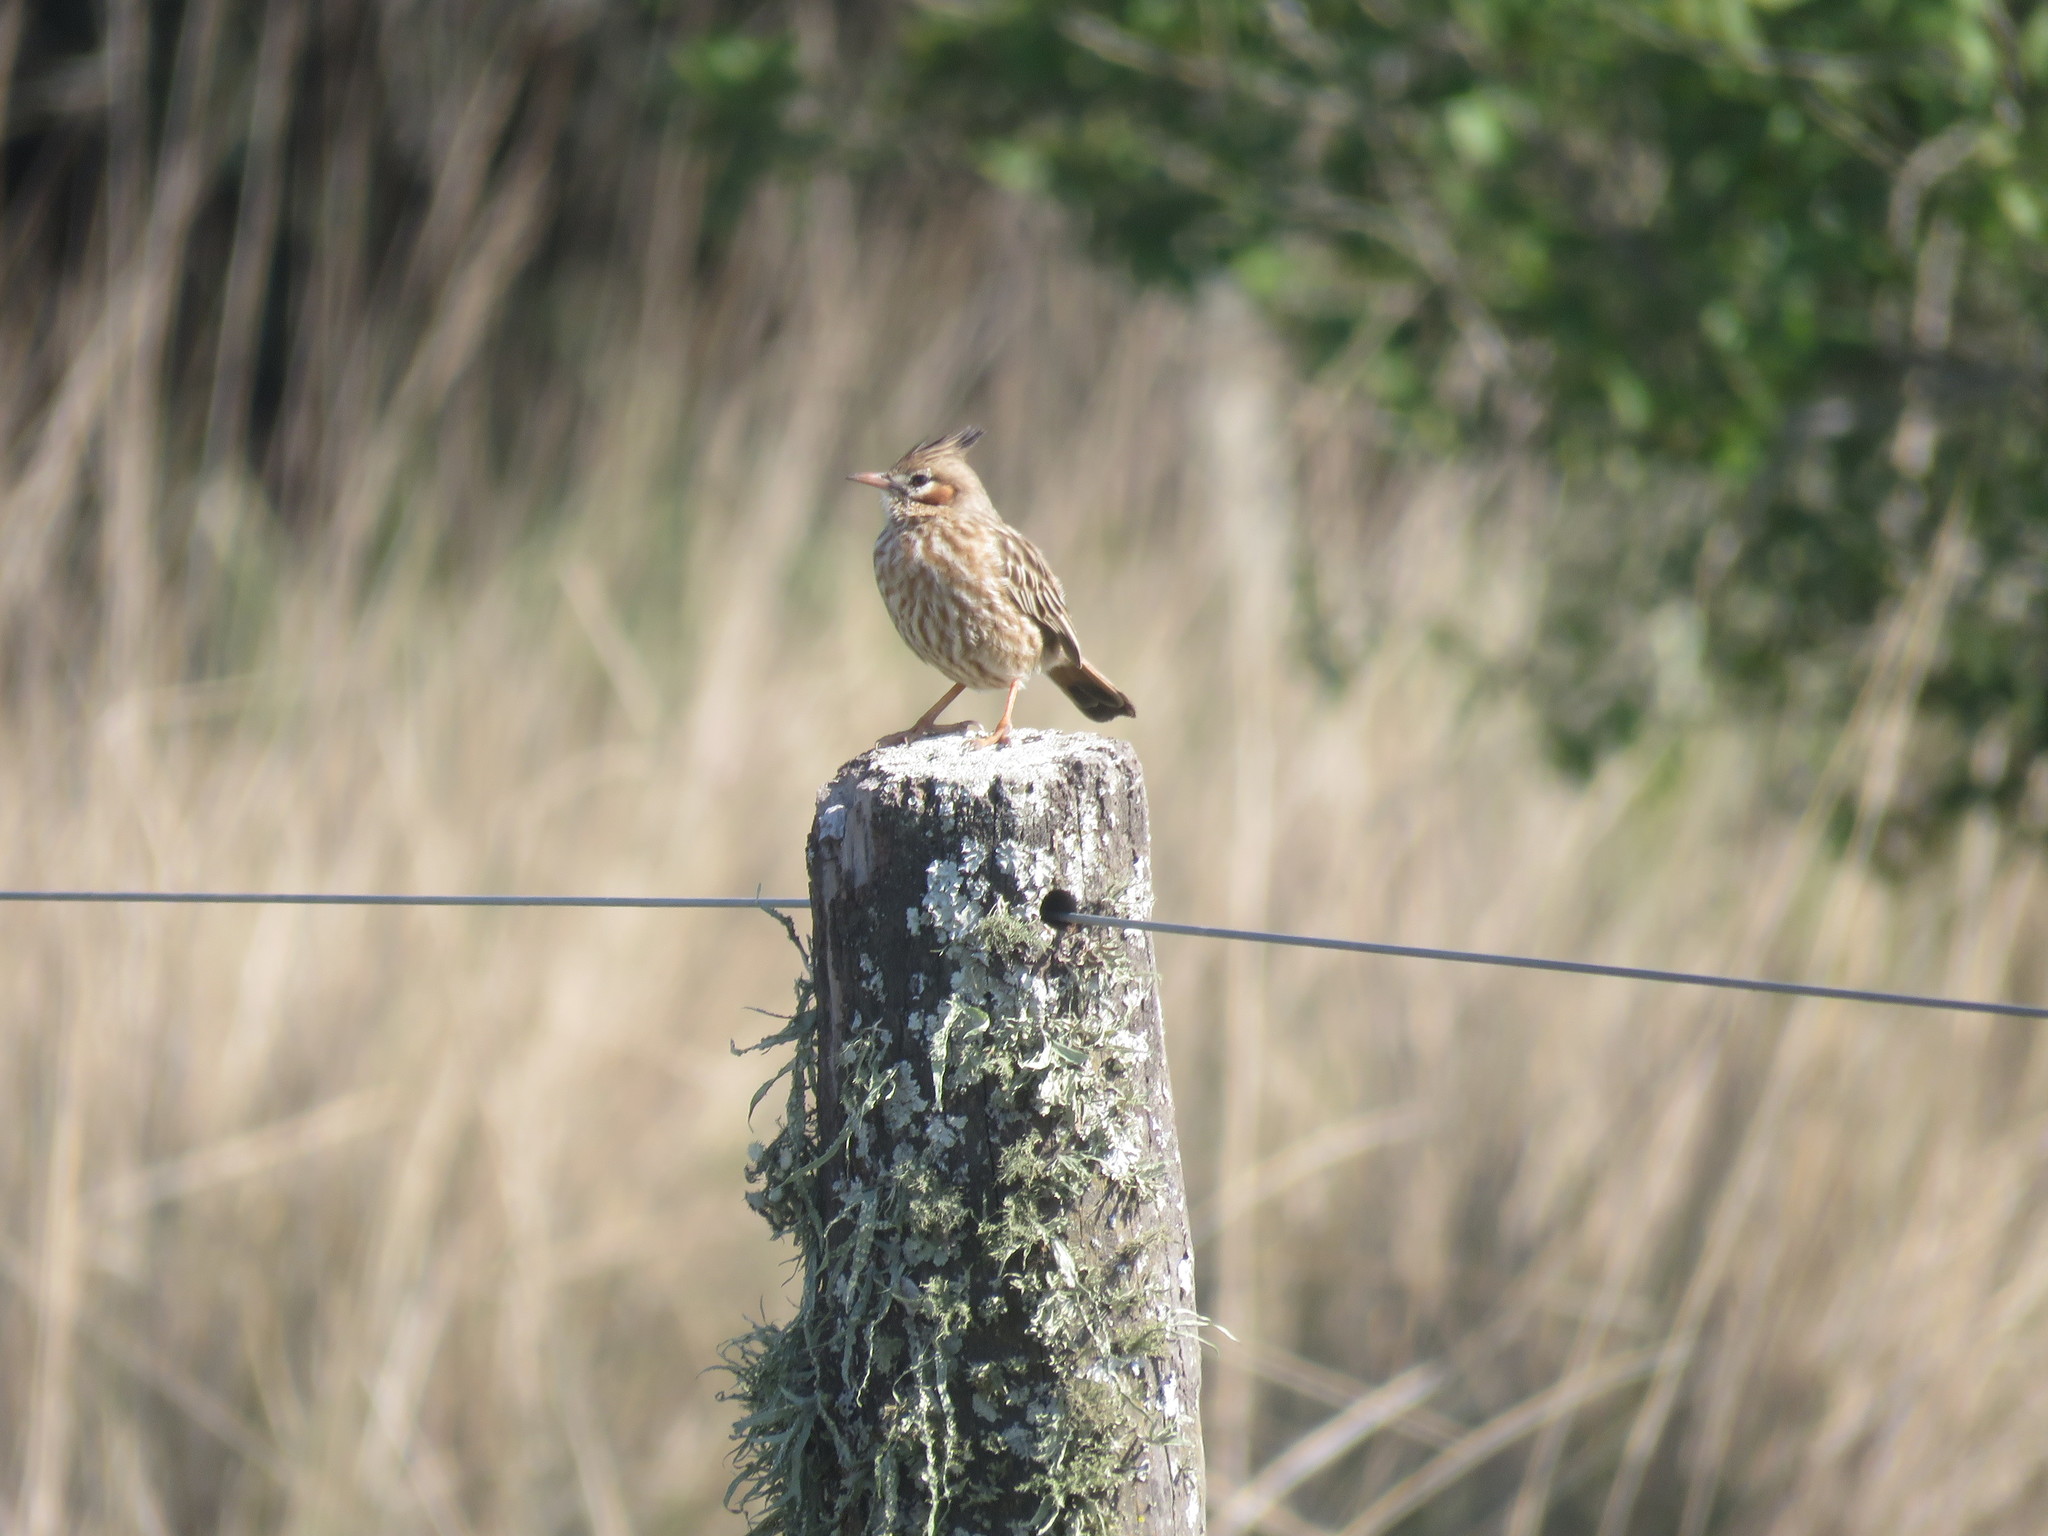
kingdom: Animalia
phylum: Chordata
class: Aves
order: Passeriformes
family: Furnariidae
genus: Coryphistera
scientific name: Coryphistera alaudina
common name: Lark-like brushrunner
